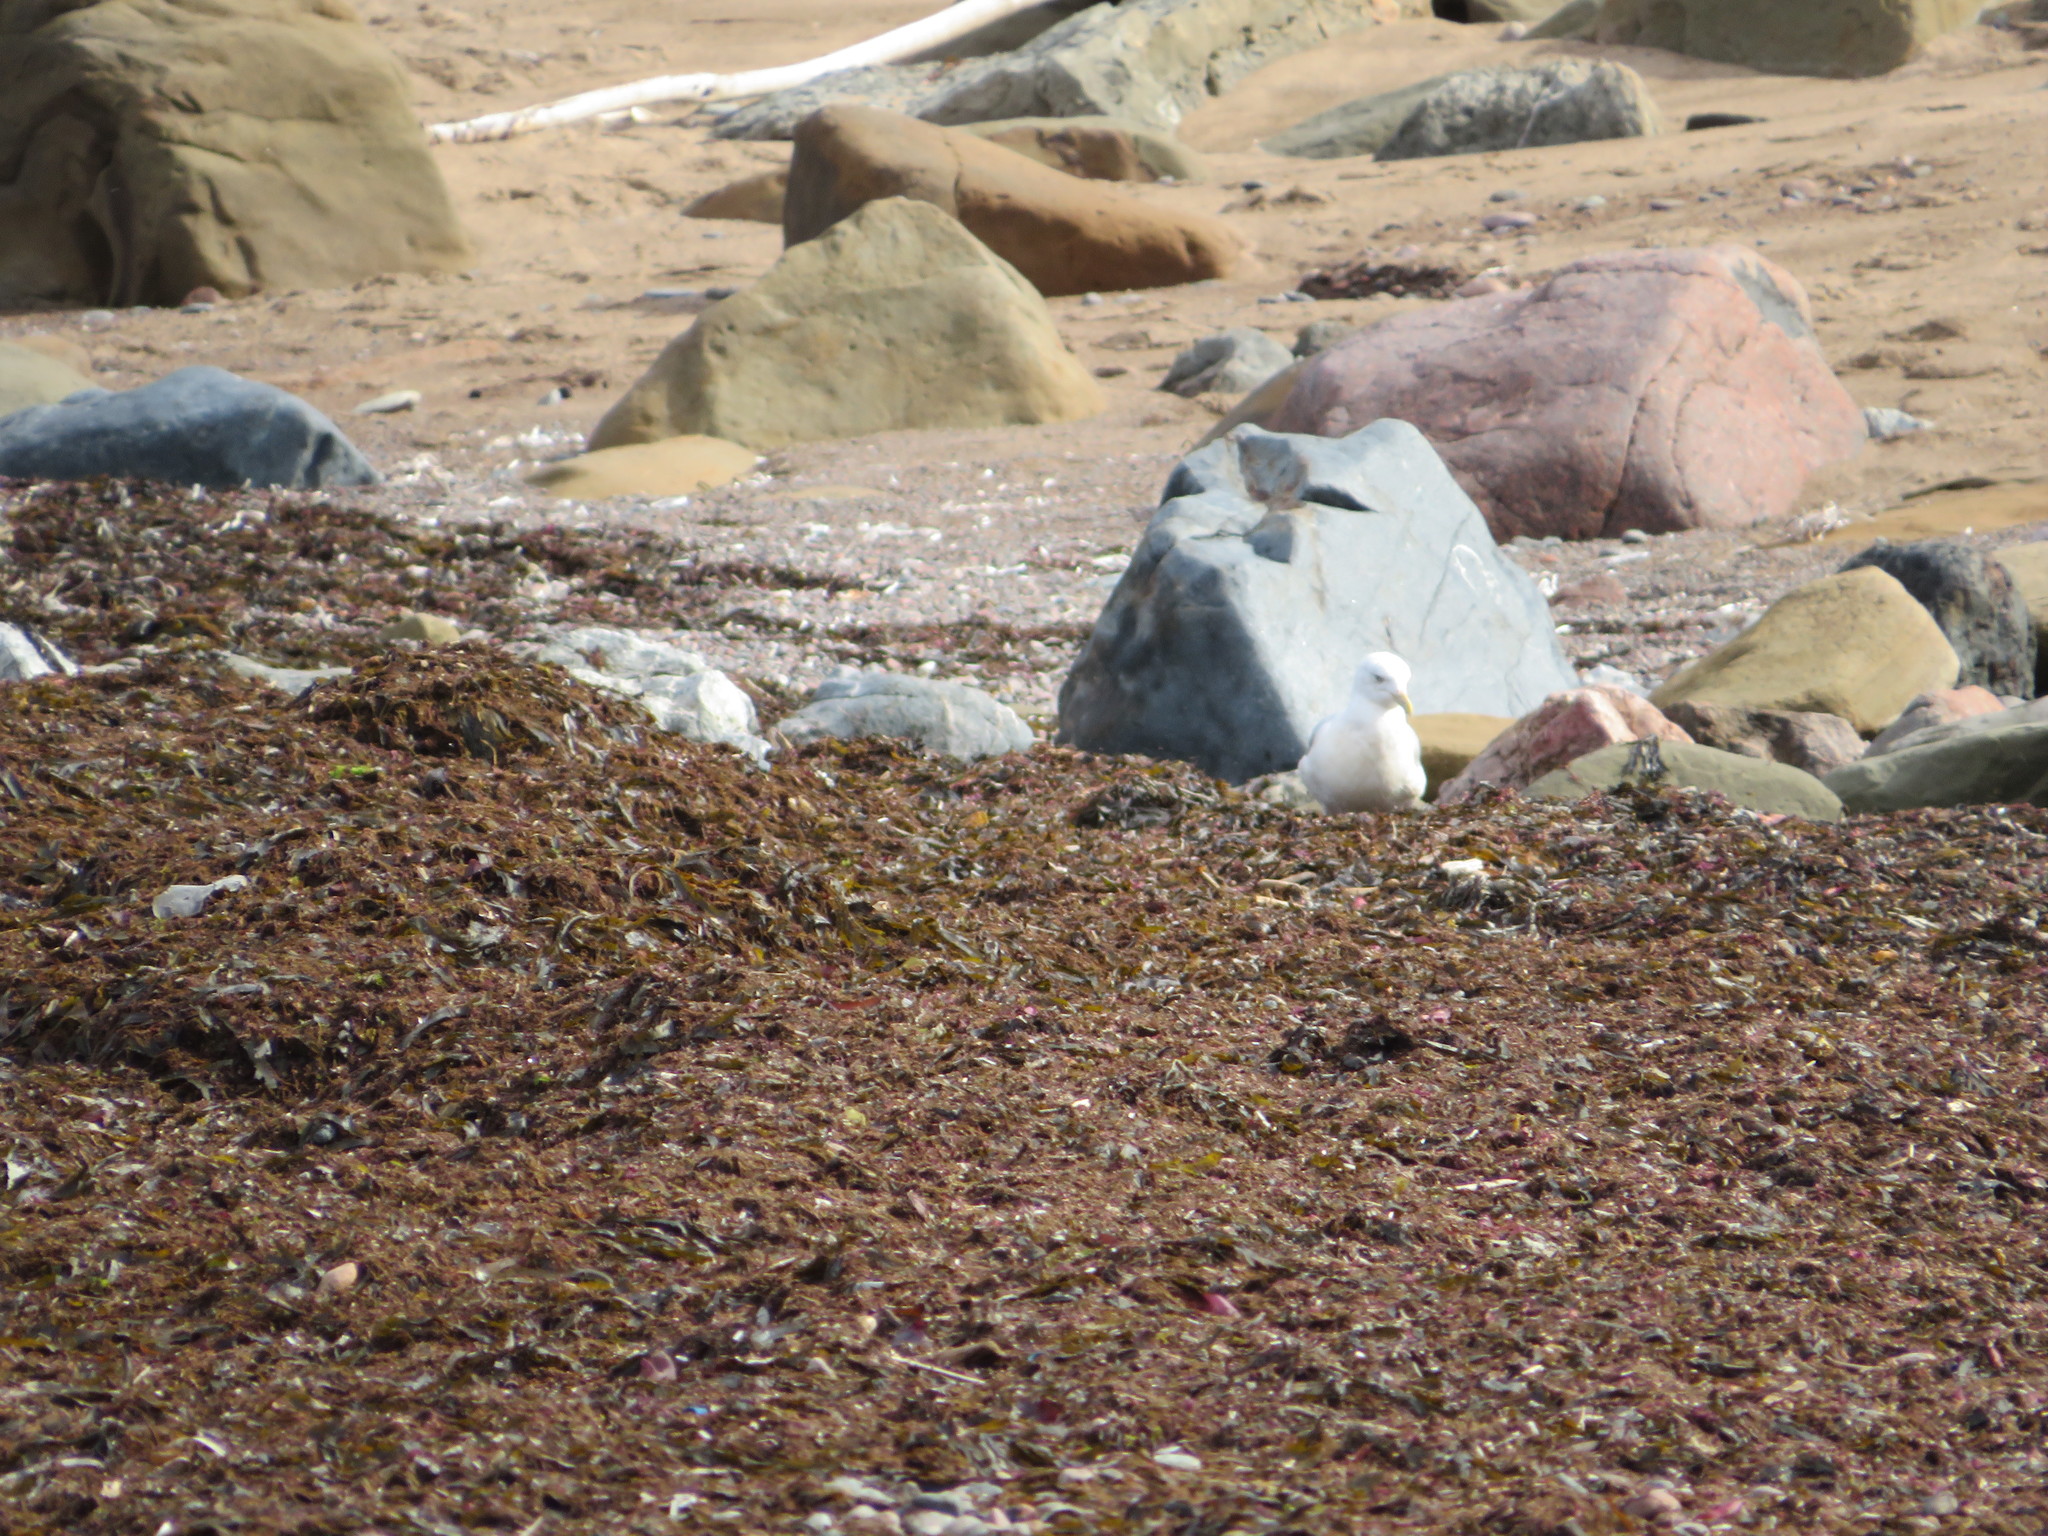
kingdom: Animalia
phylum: Chordata
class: Aves
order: Charadriiformes
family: Laridae
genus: Larus
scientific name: Larus argentatus
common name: Herring gull
